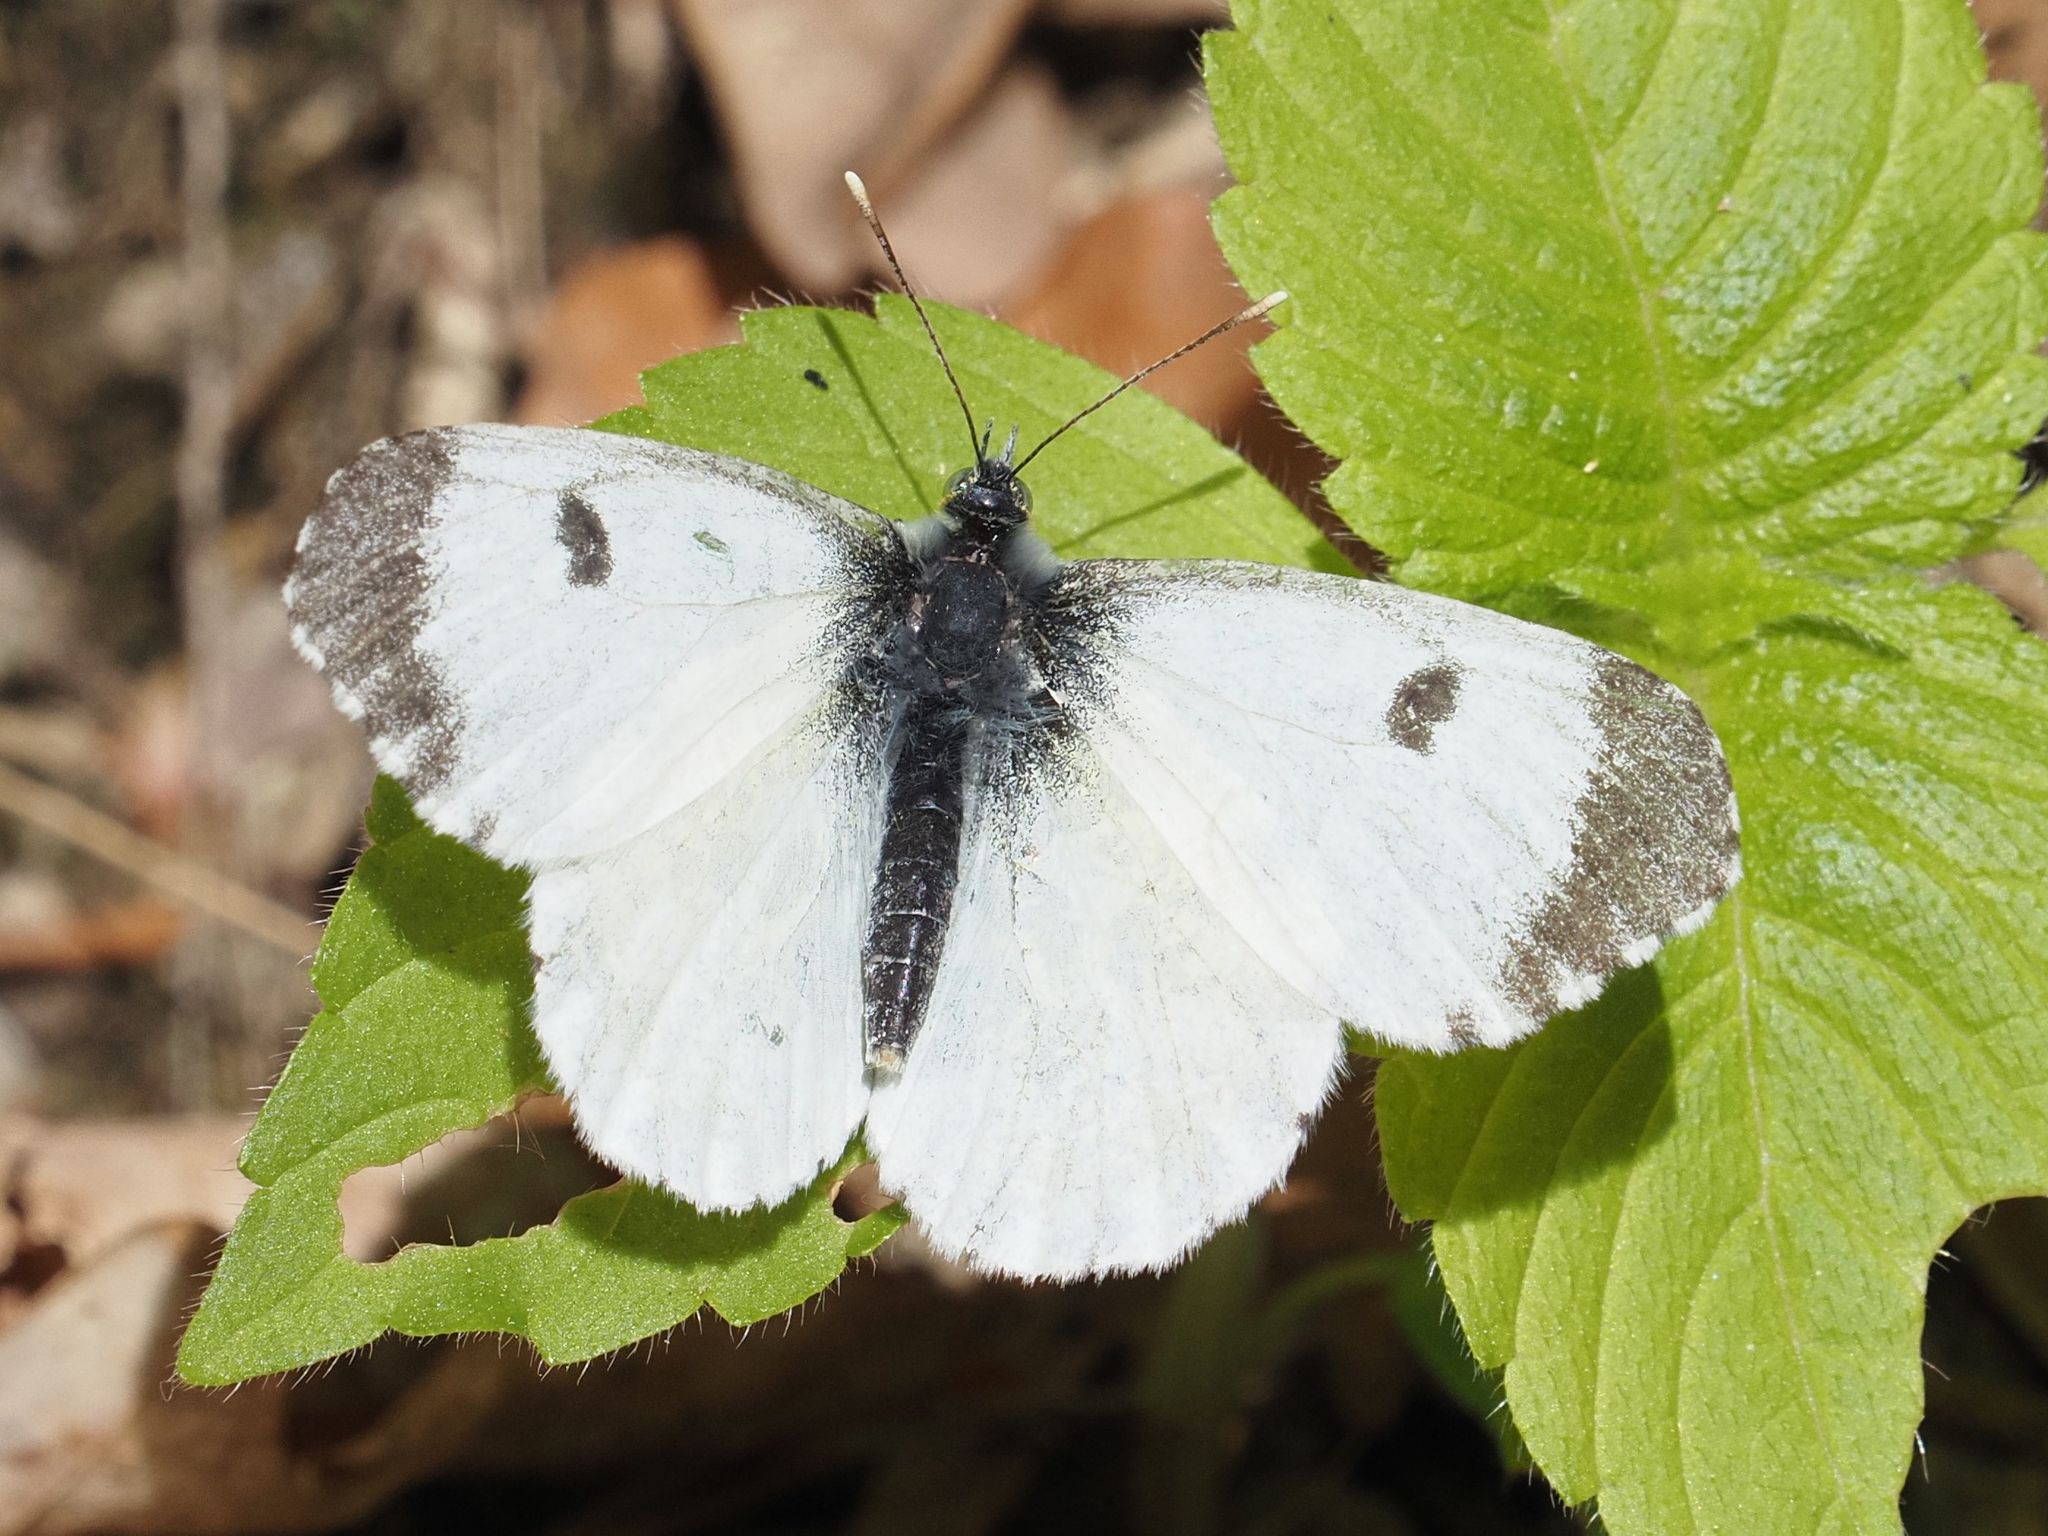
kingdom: Animalia
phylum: Arthropoda
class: Insecta
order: Lepidoptera
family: Pieridae
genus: Anthocharis
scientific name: Anthocharis cardamines
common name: Orange-tip
